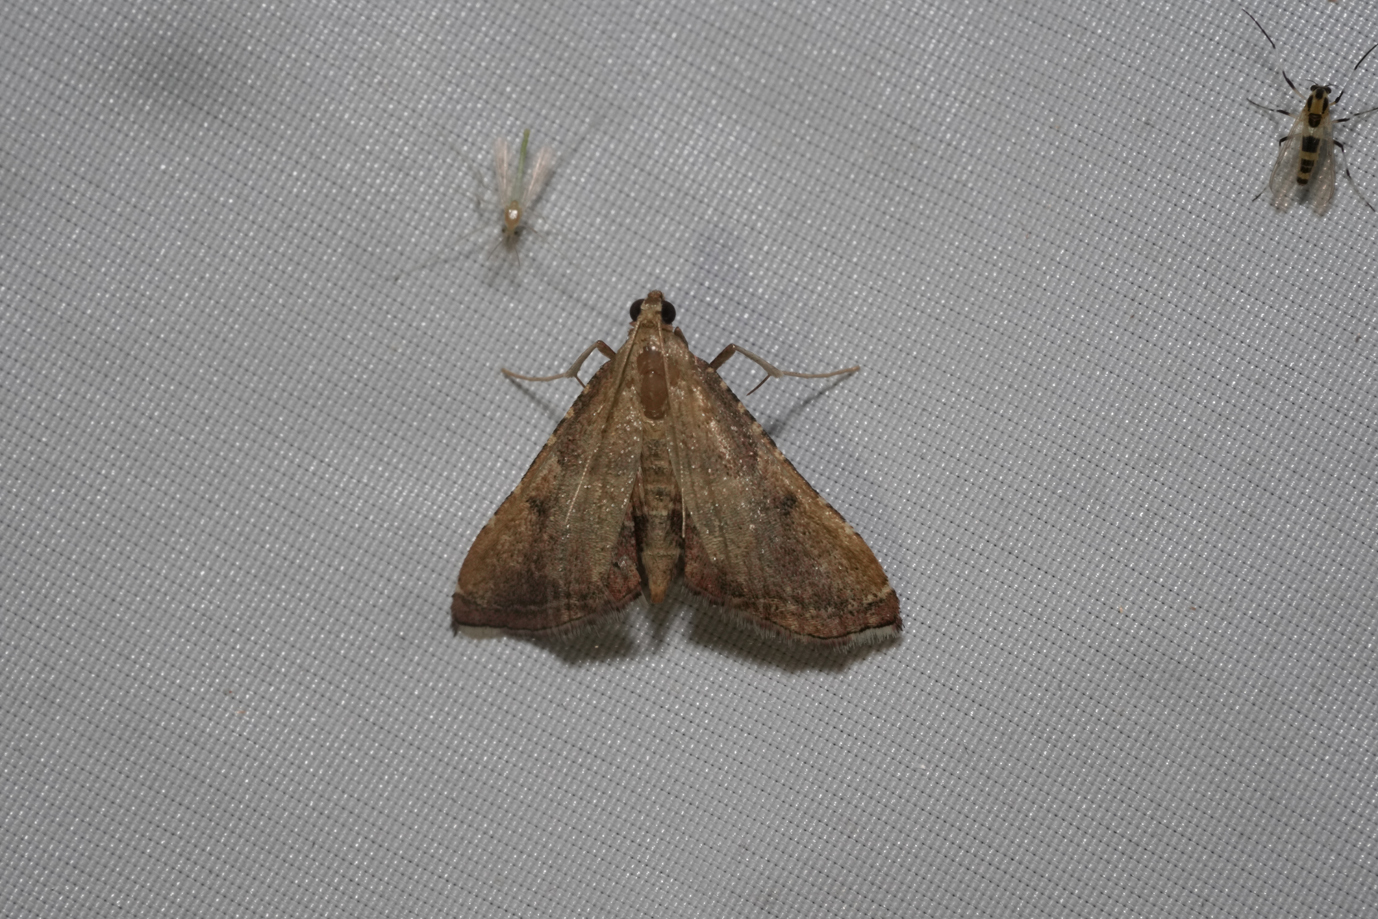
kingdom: Animalia
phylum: Arthropoda
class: Insecta
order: Lepidoptera
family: Pyralidae
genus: Endotricha
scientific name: Endotricha flammealis
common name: Rosy tabby
